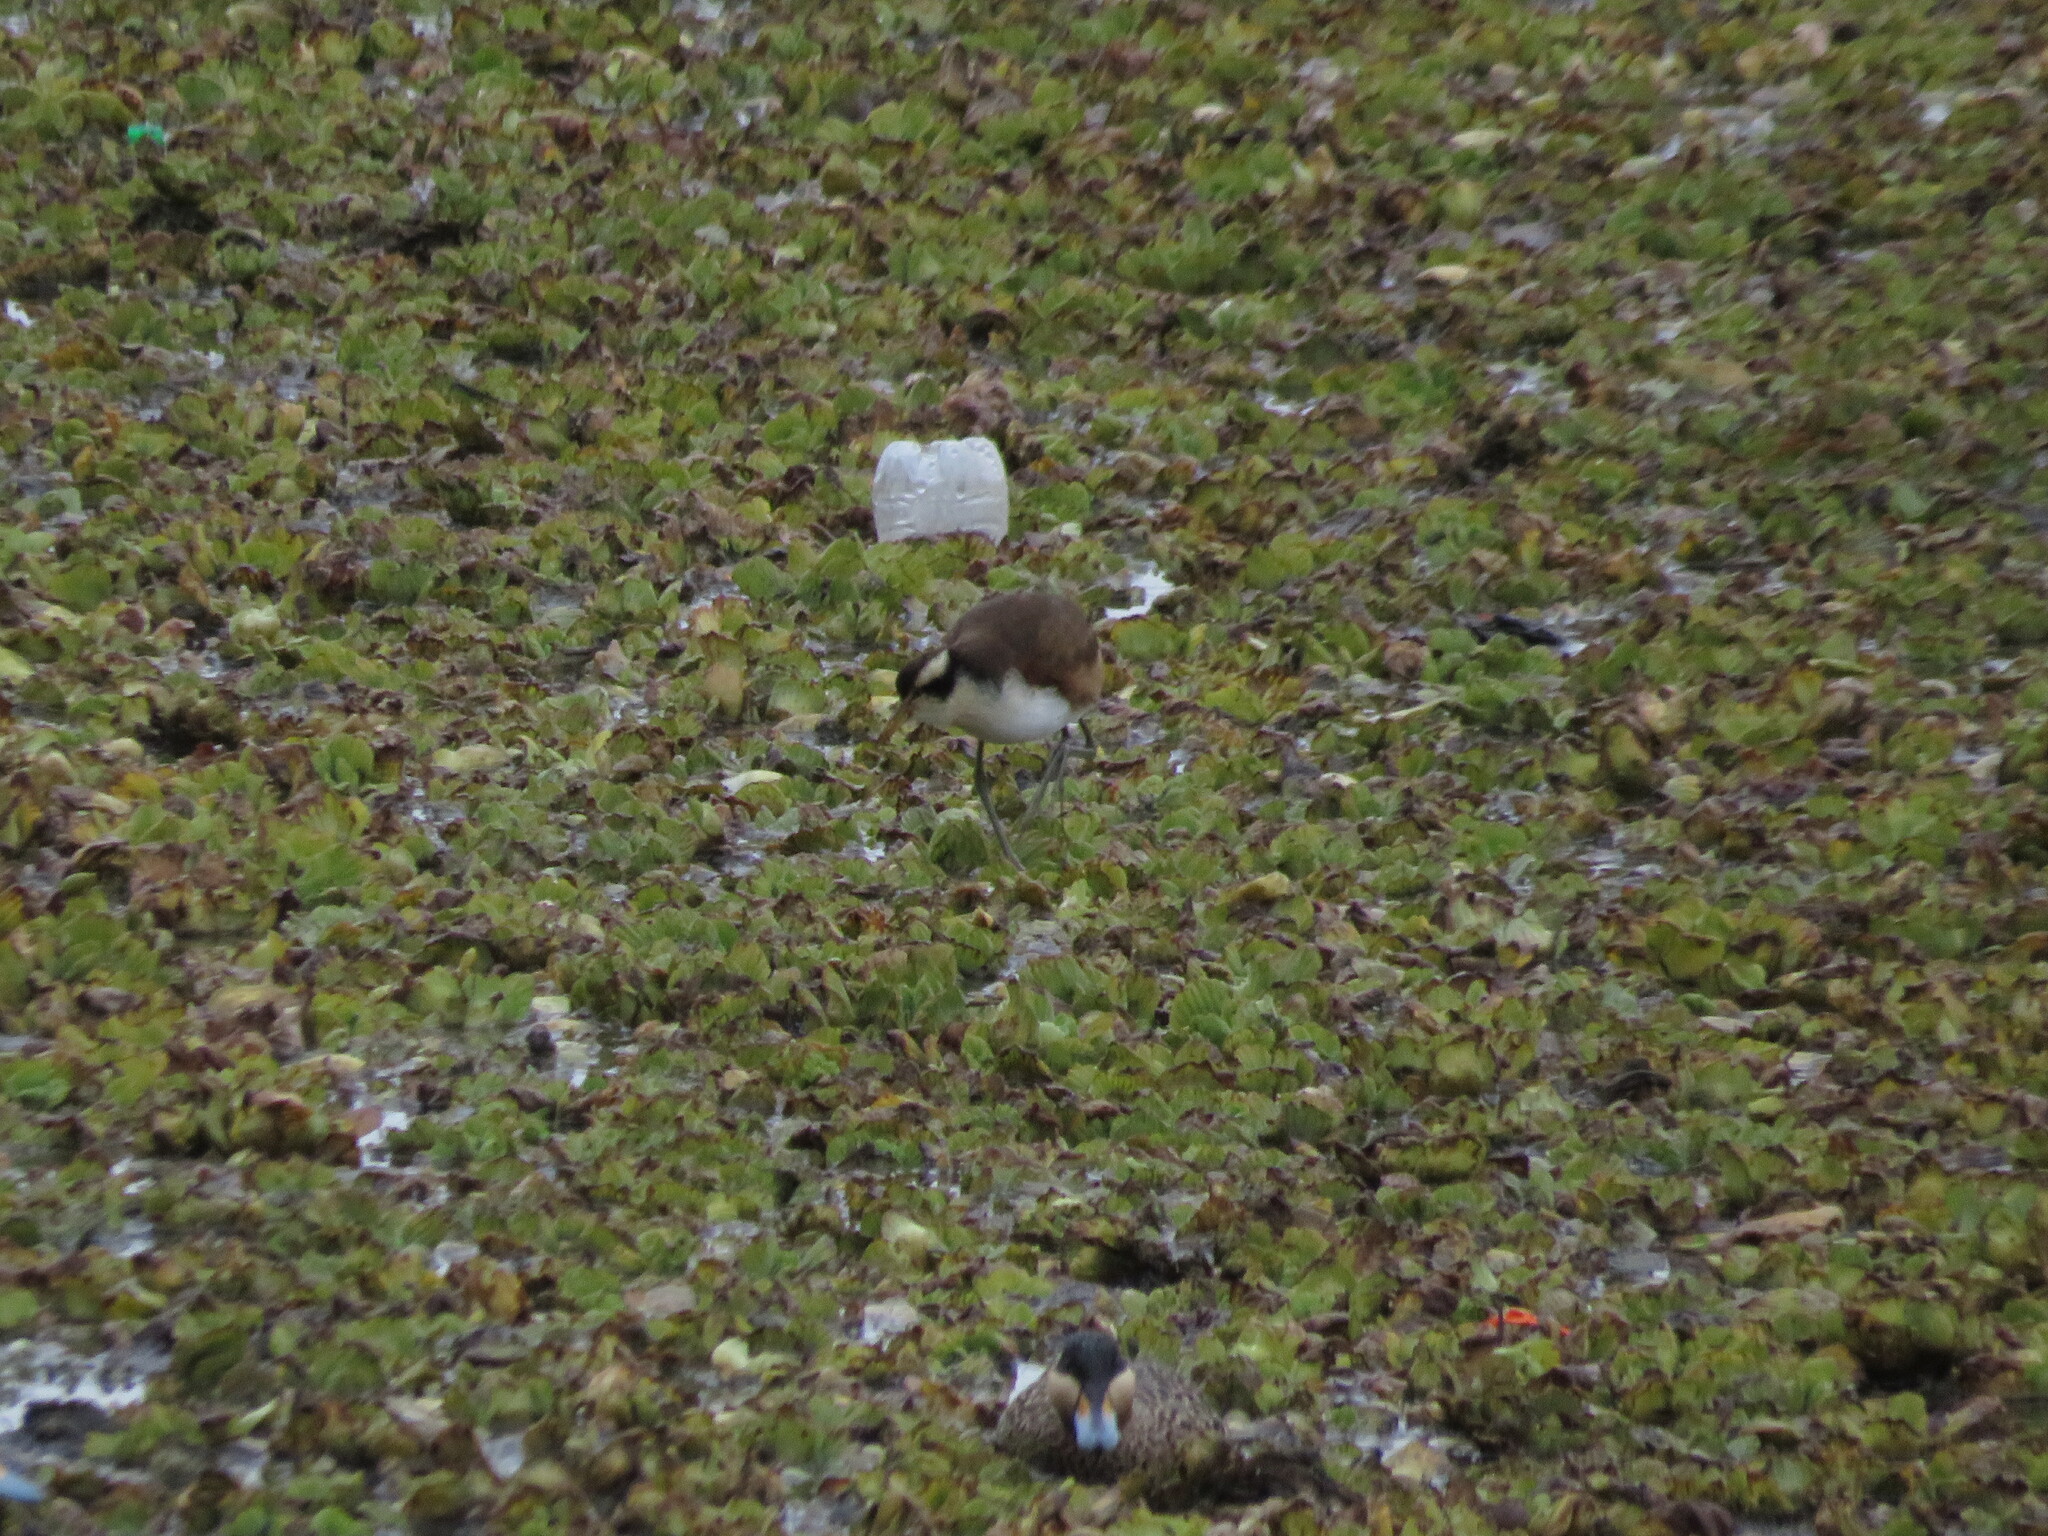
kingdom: Animalia
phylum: Chordata
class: Aves
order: Charadriiformes
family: Jacanidae
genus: Jacana
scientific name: Jacana jacana
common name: Wattled jacana
